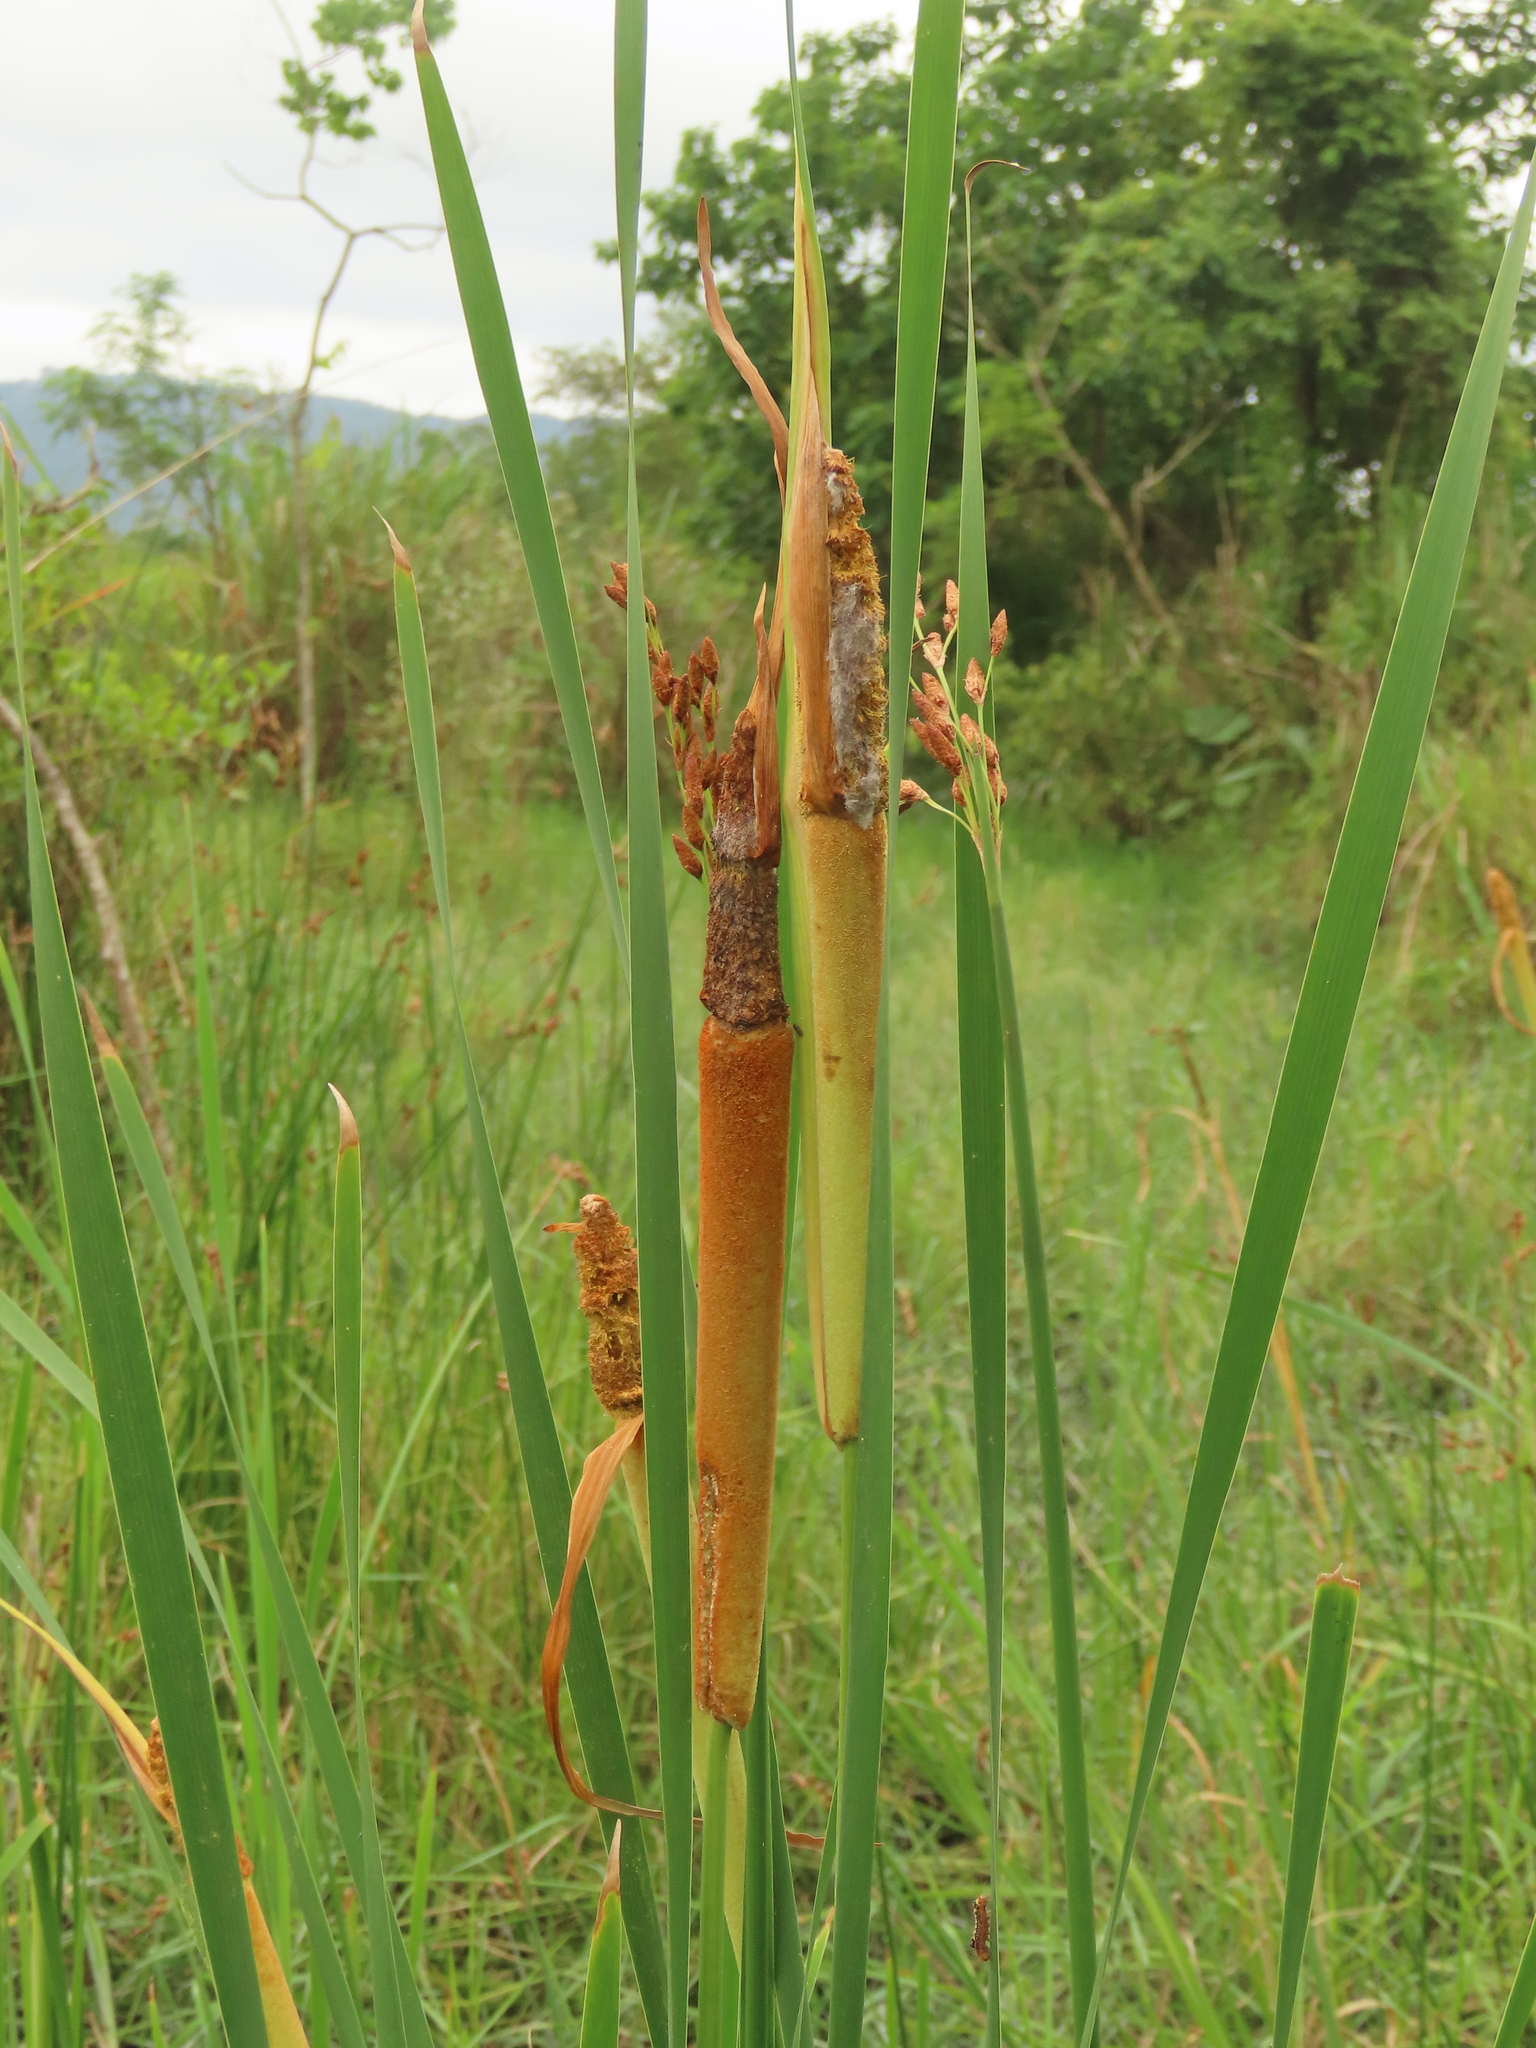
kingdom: Plantae
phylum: Tracheophyta
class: Liliopsida
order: Poales
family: Typhaceae
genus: Typha
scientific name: Typha orientalis
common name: Bullrush
